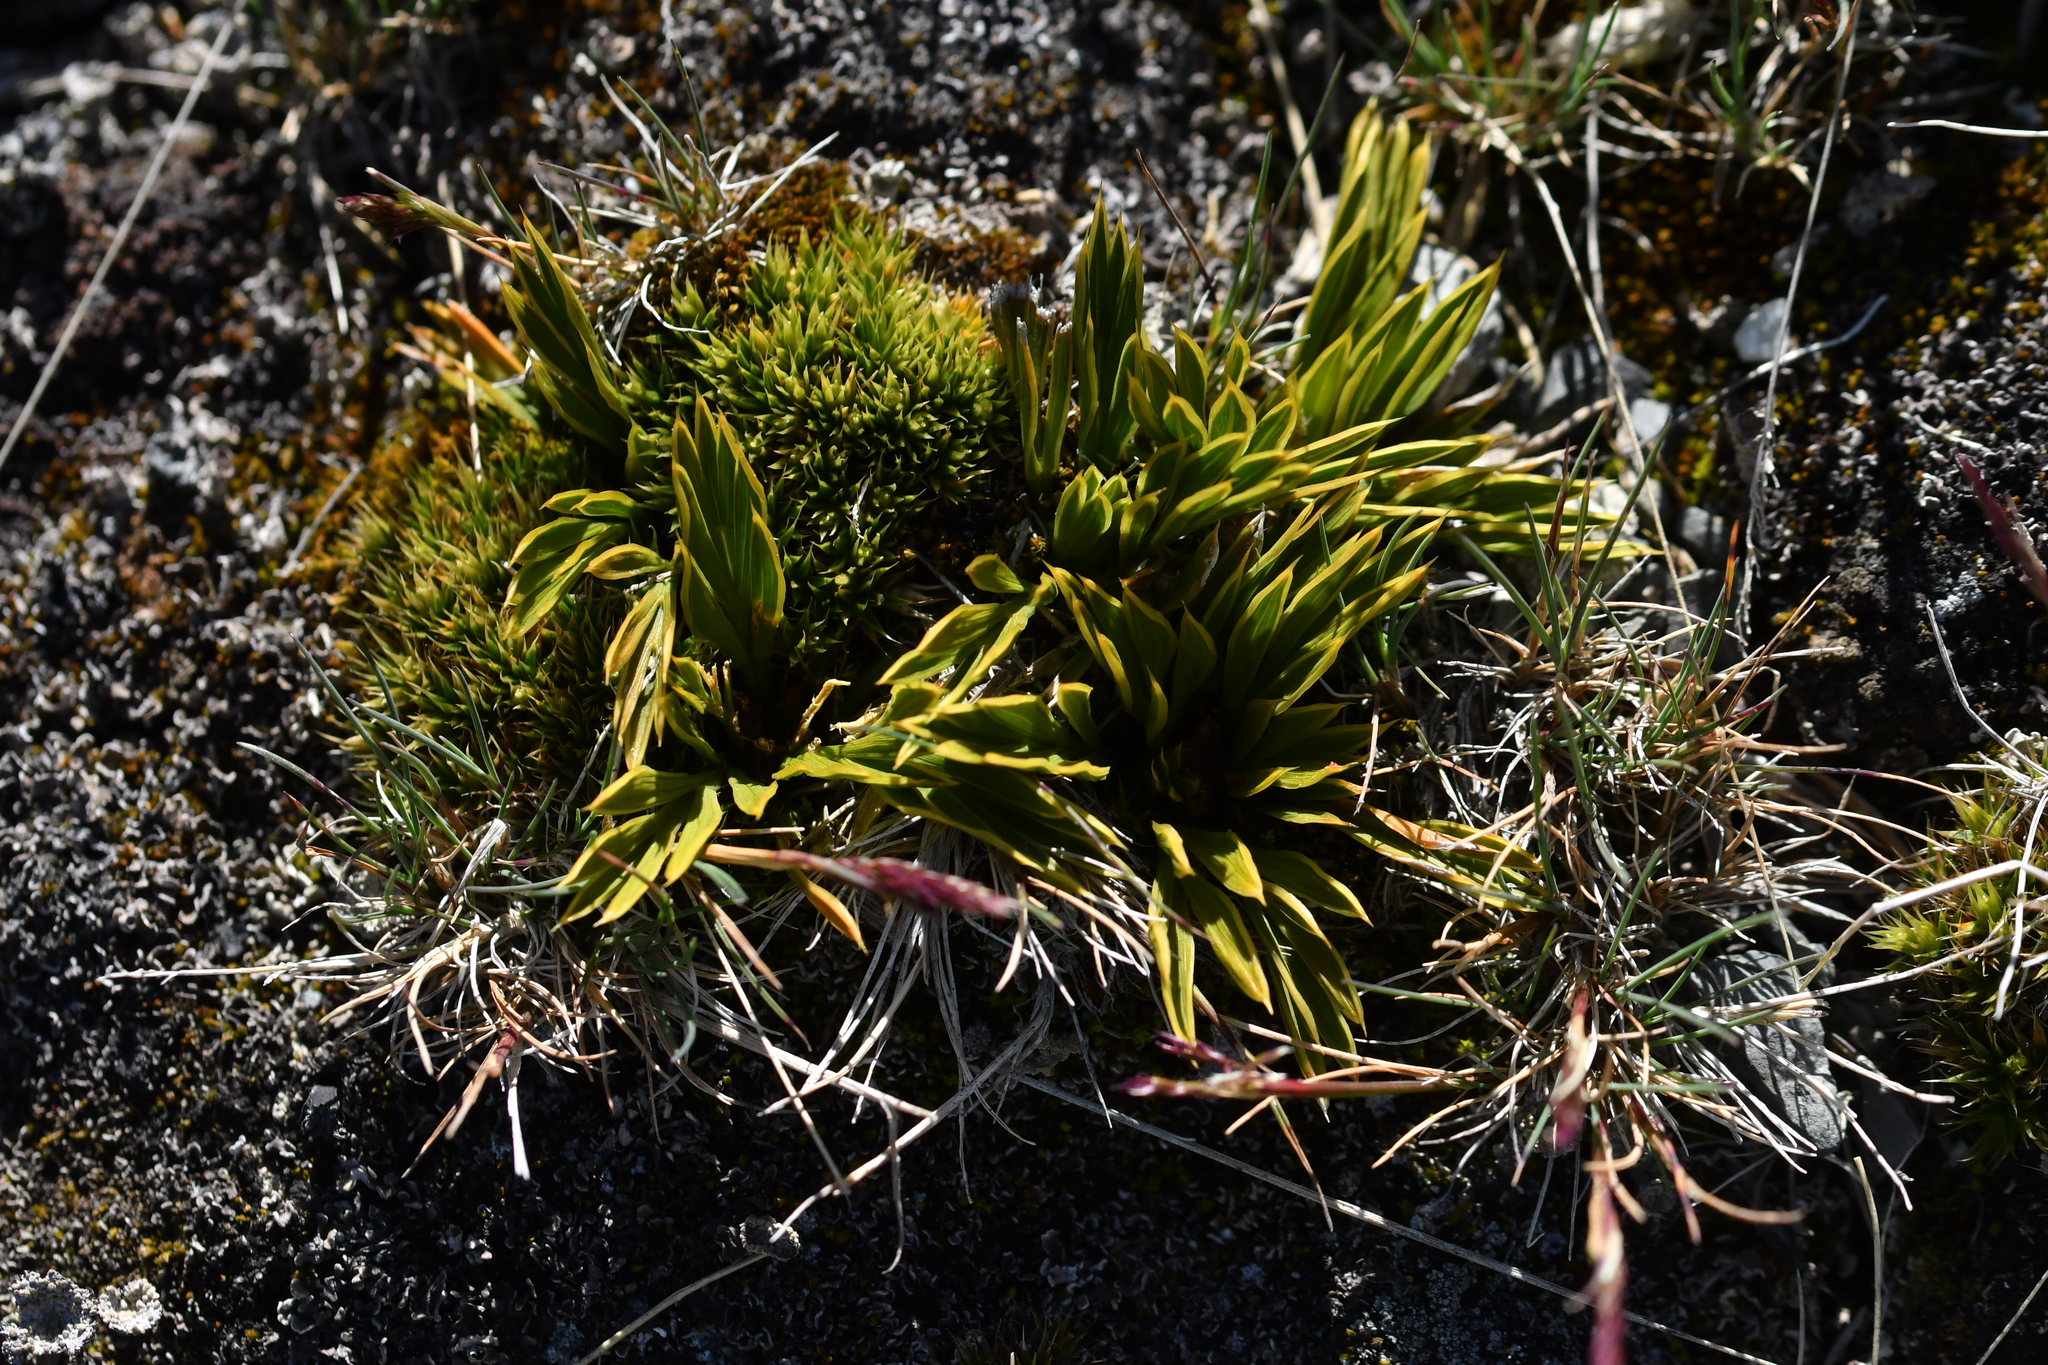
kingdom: Plantae
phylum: Tracheophyta
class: Magnoliopsida
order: Apiales
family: Apiaceae
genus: Aciphylla
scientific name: Aciphylla monroi
